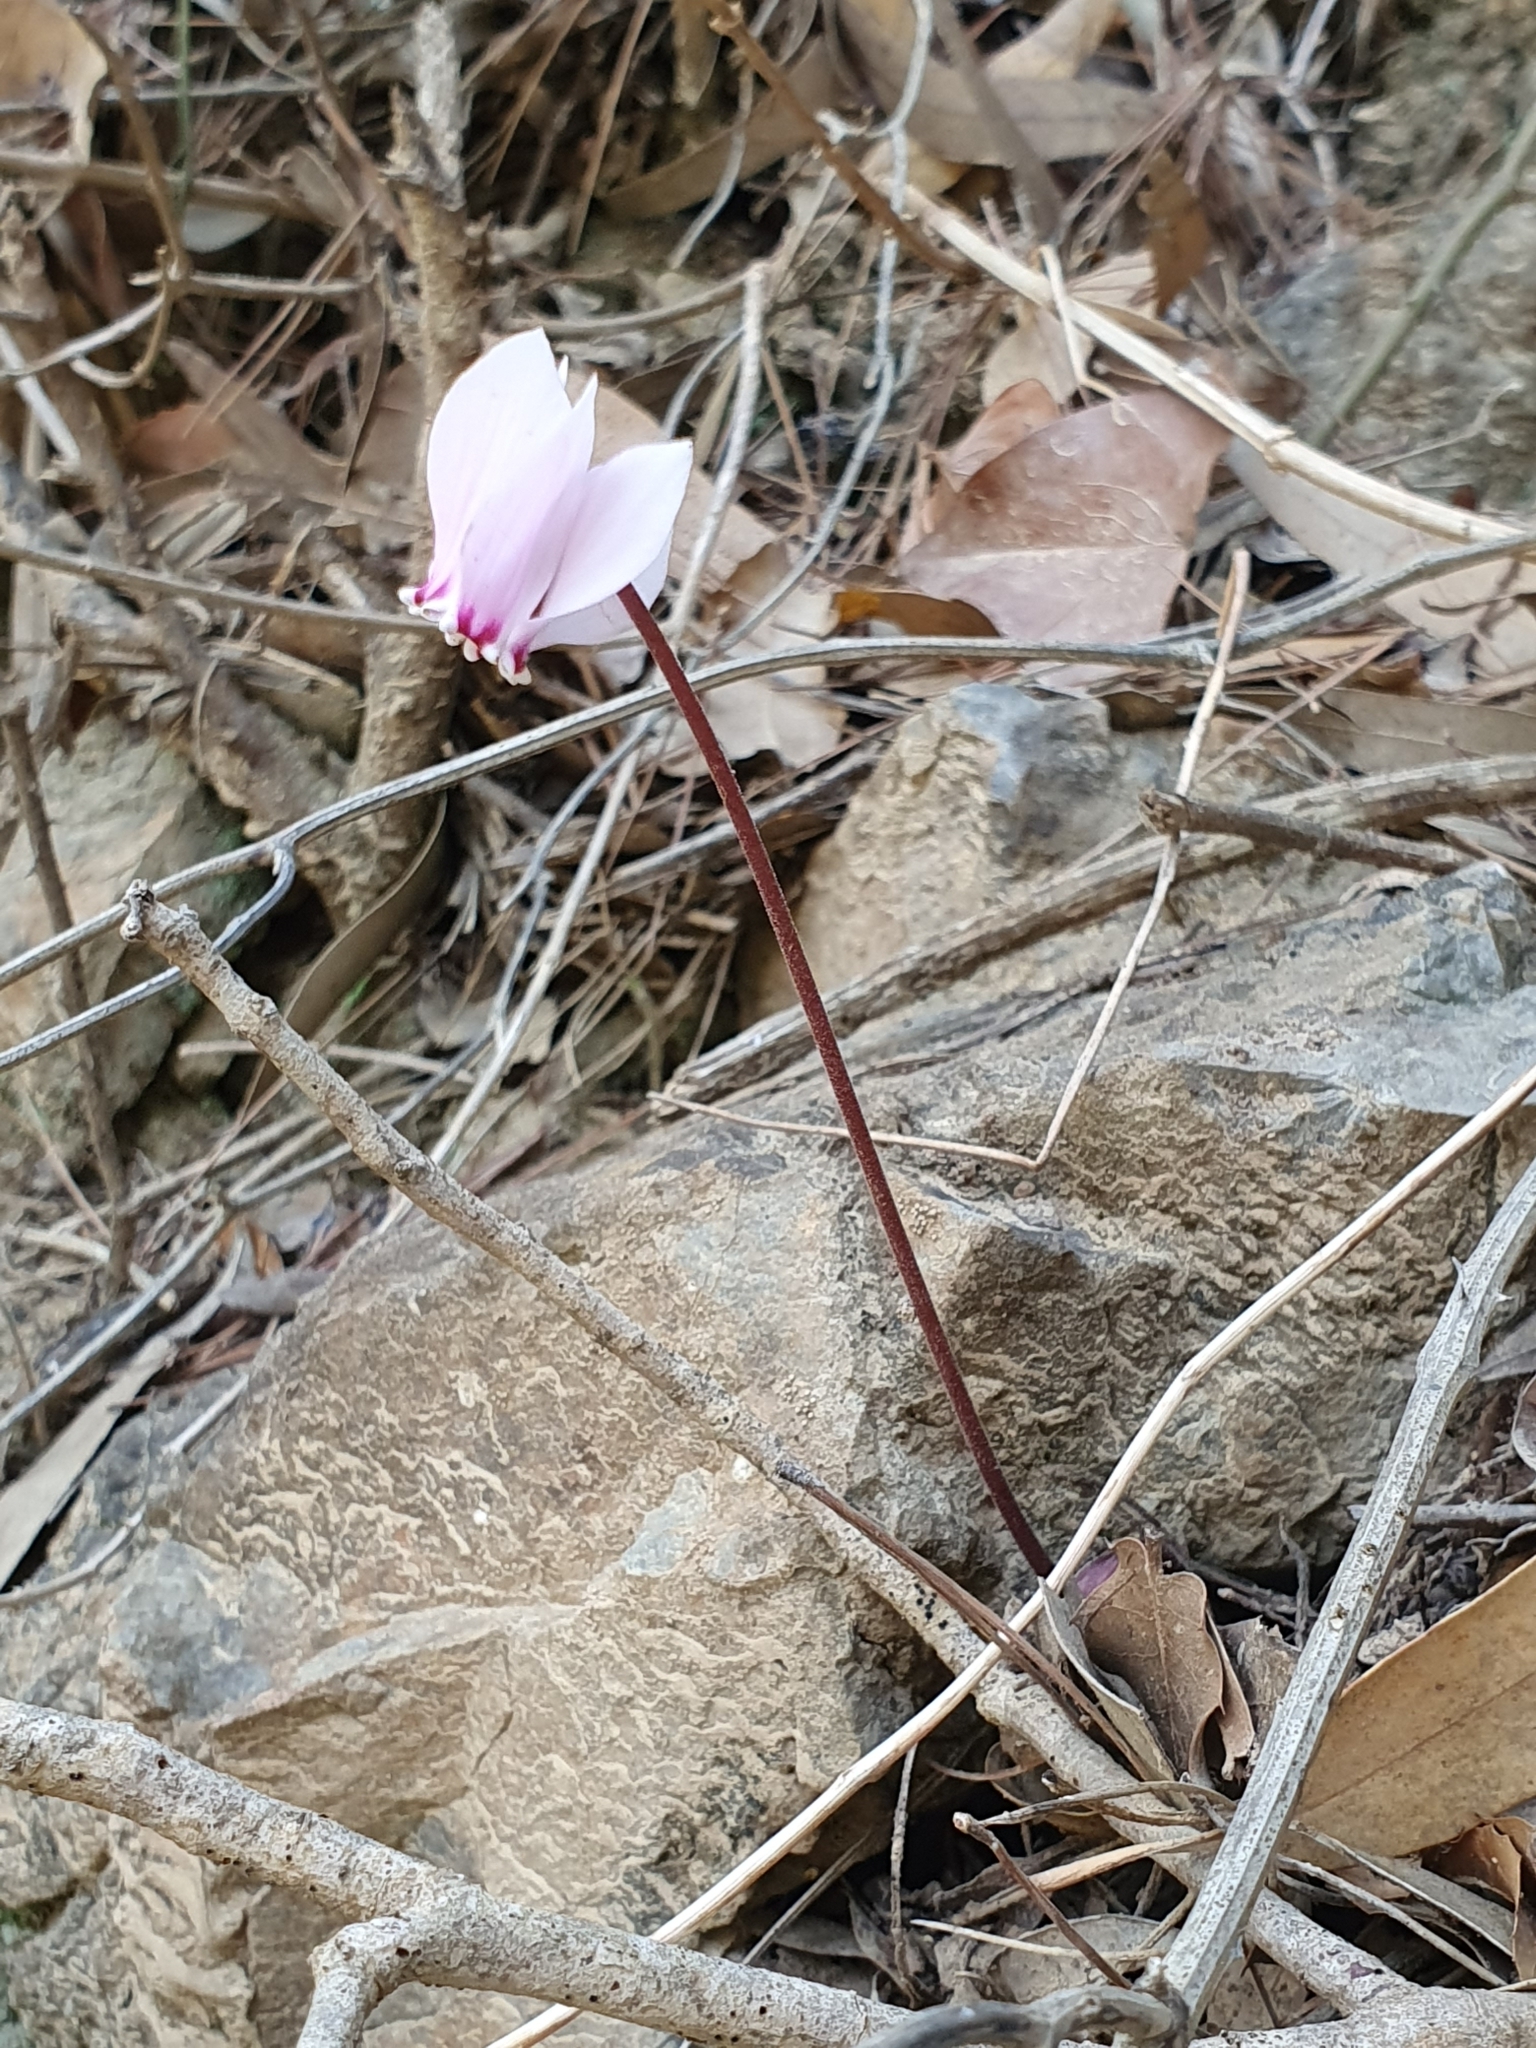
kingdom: Plantae
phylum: Tracheophyta
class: Magnoliopsida
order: Ericales
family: Primulaceae
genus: Cyclamen
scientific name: Cyclamen africanum
